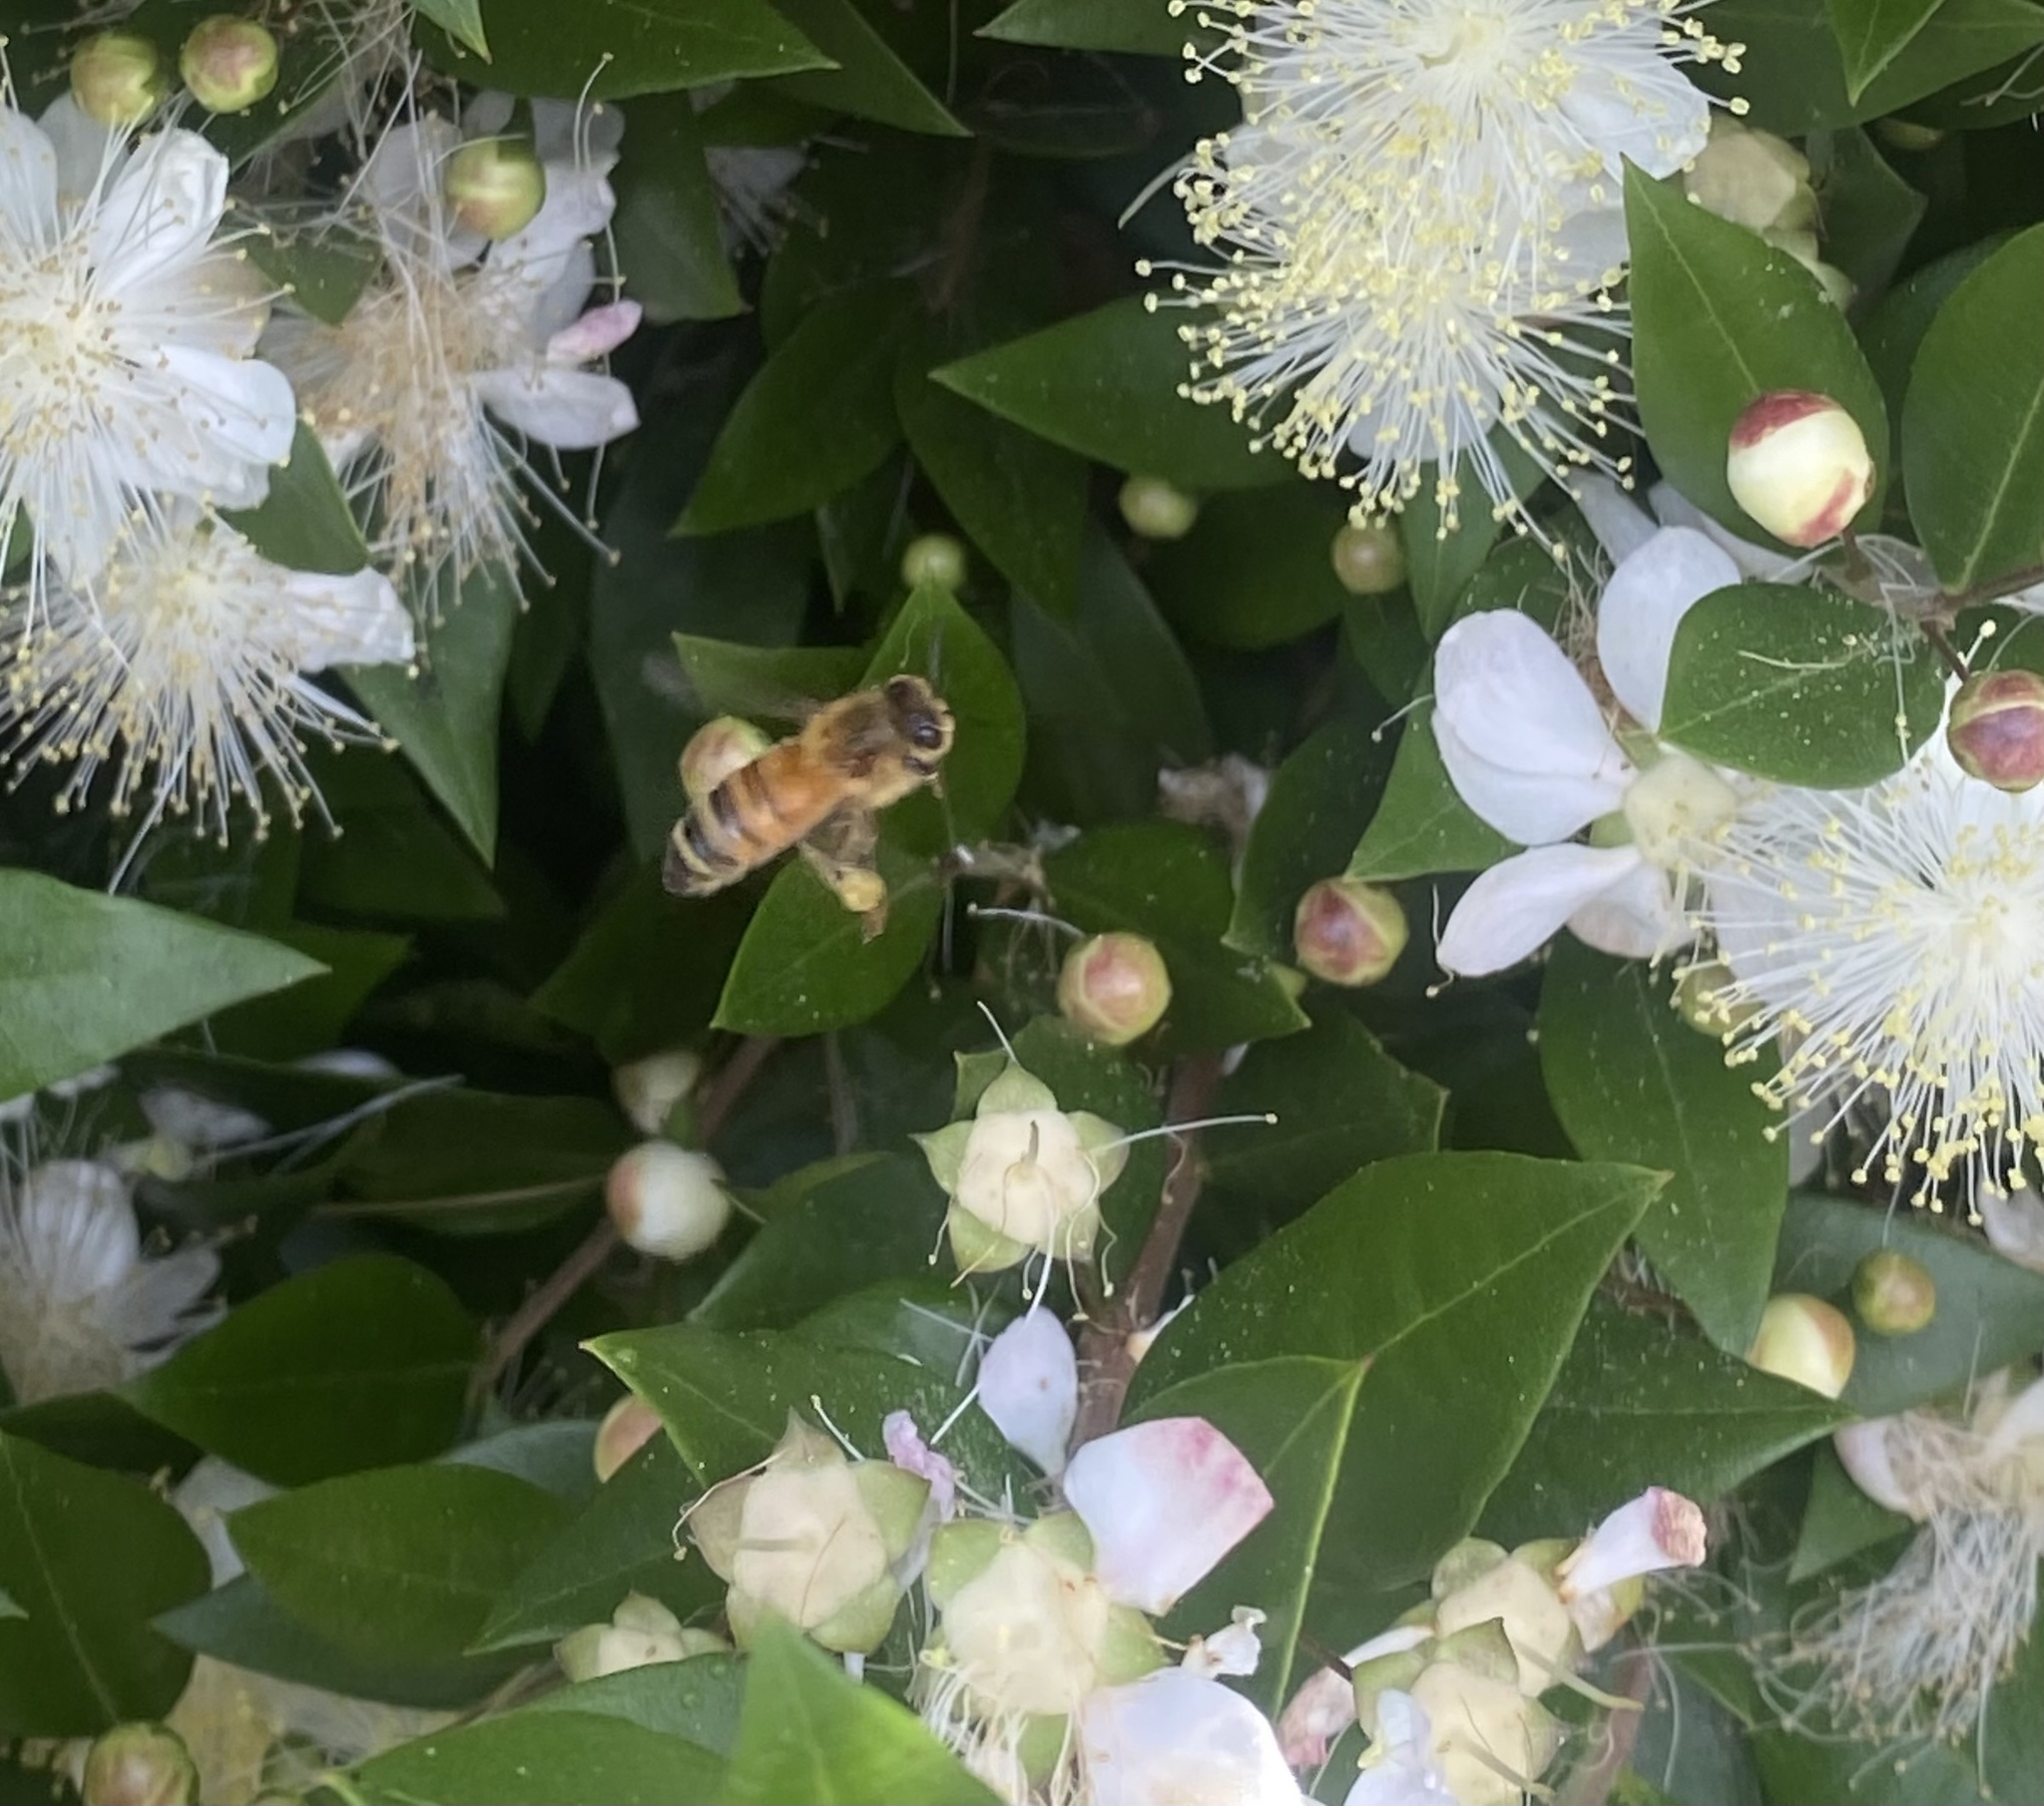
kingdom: Animalia
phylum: Arthropoda
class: Insecta
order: Hymenoptera
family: Apidae
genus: Apis
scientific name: Apis mellifera
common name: Honey bee
